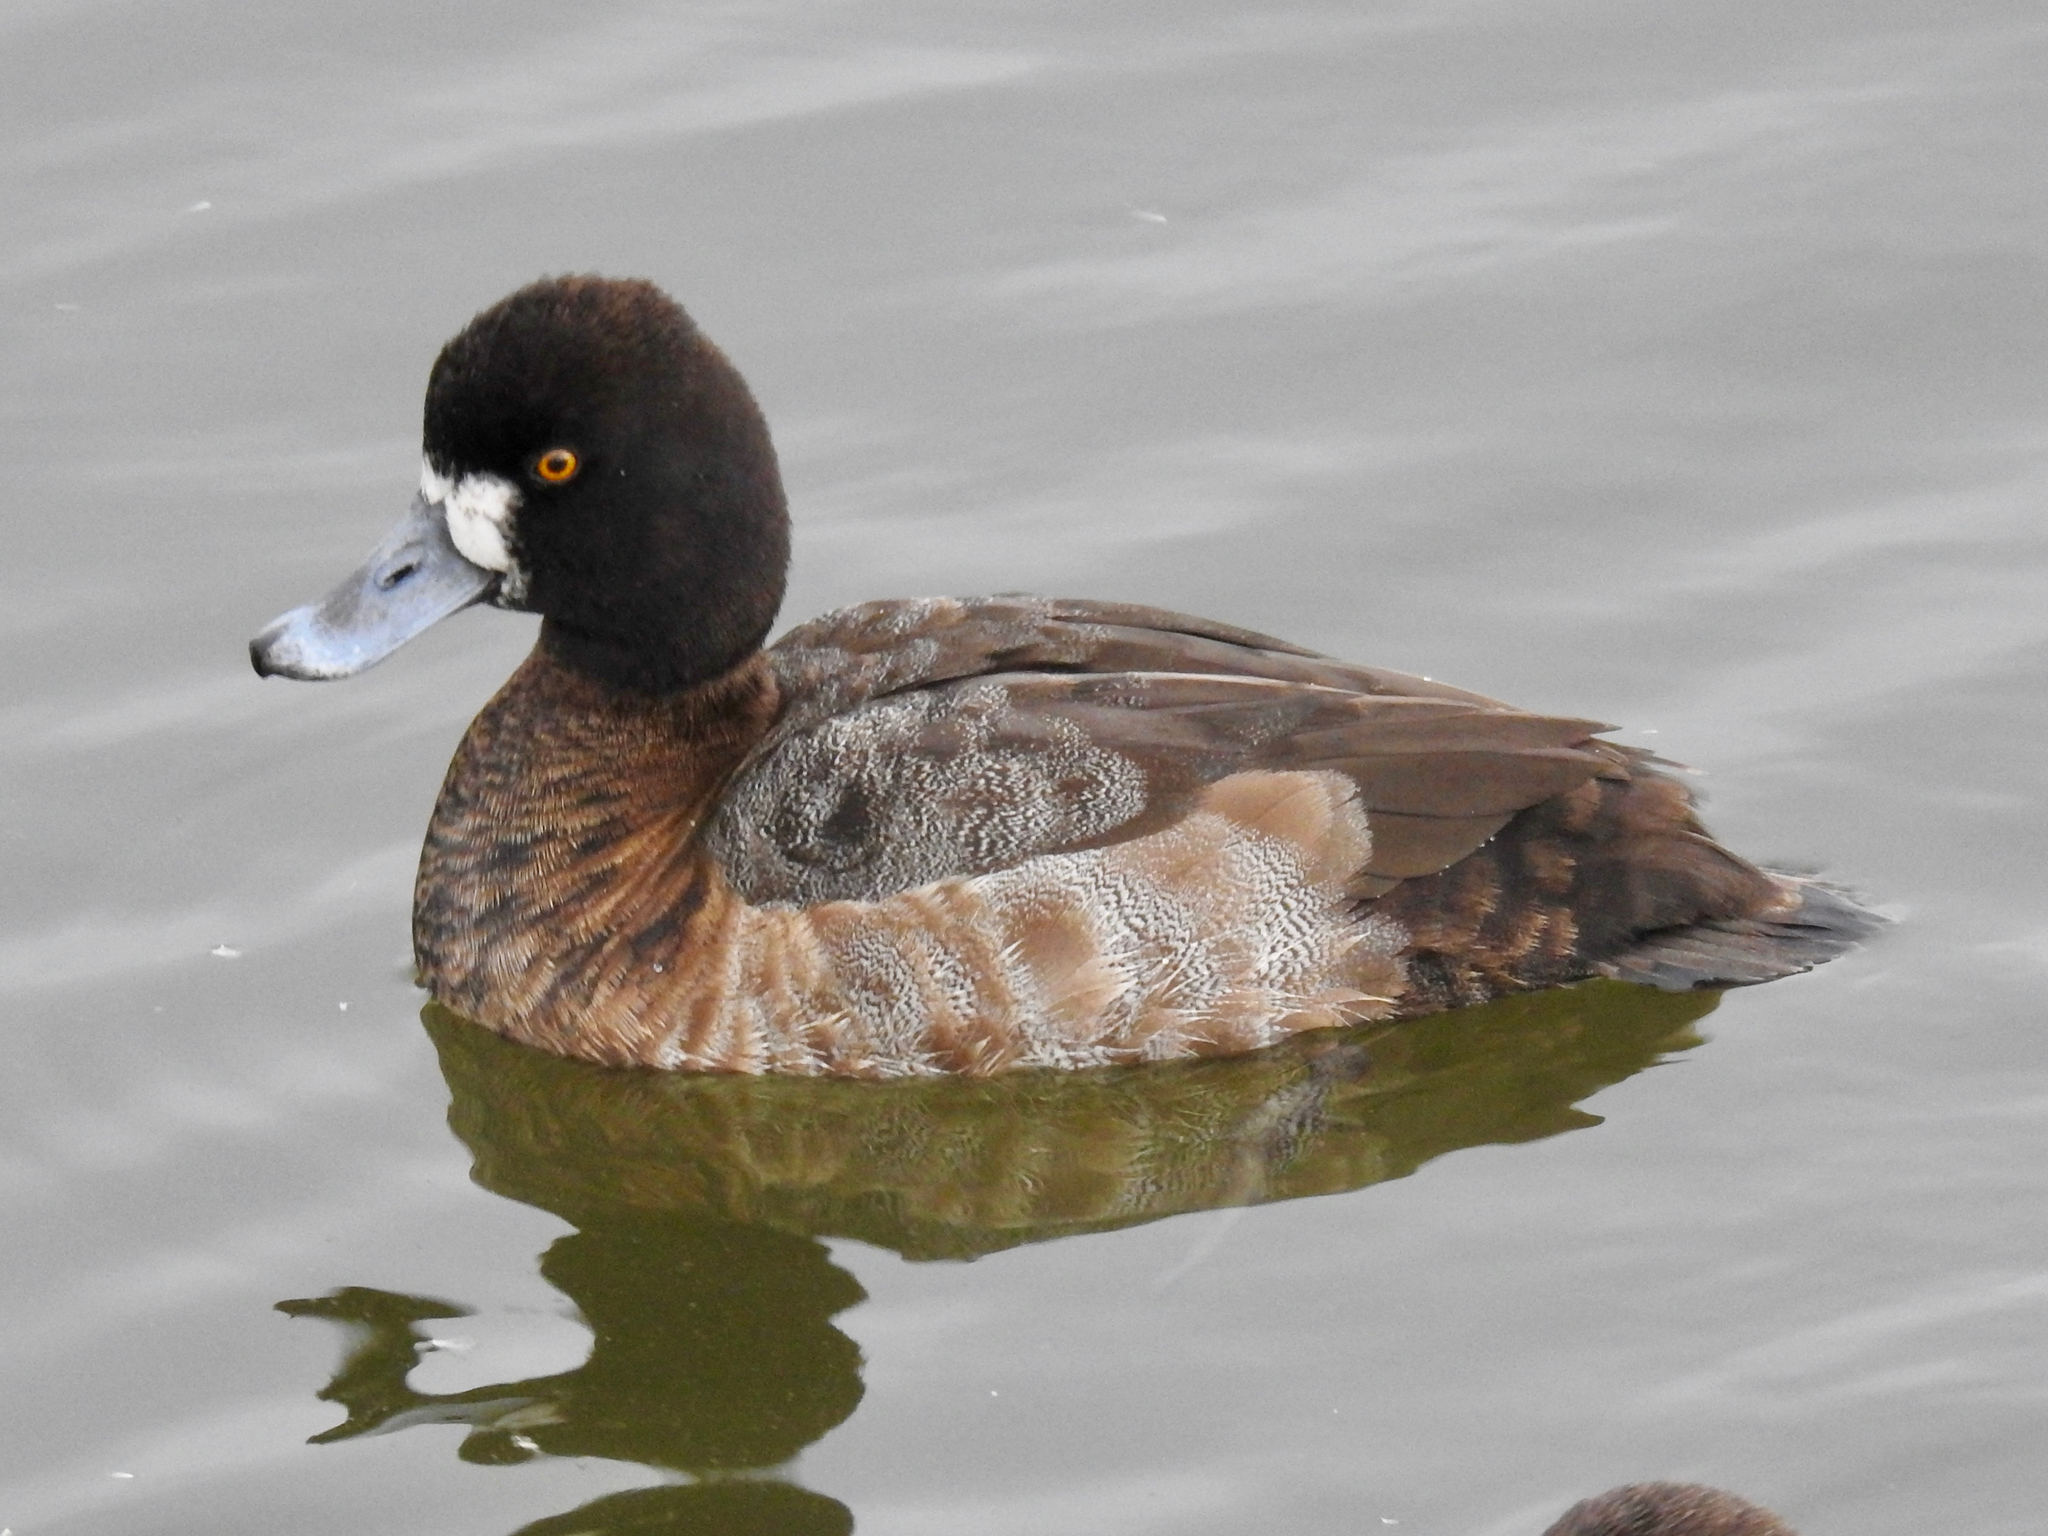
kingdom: Animalia
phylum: Chordata
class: Aves
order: Anseriformes
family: Anatidae
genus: Aythya
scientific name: Aythya affinis
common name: Lesser scaup
